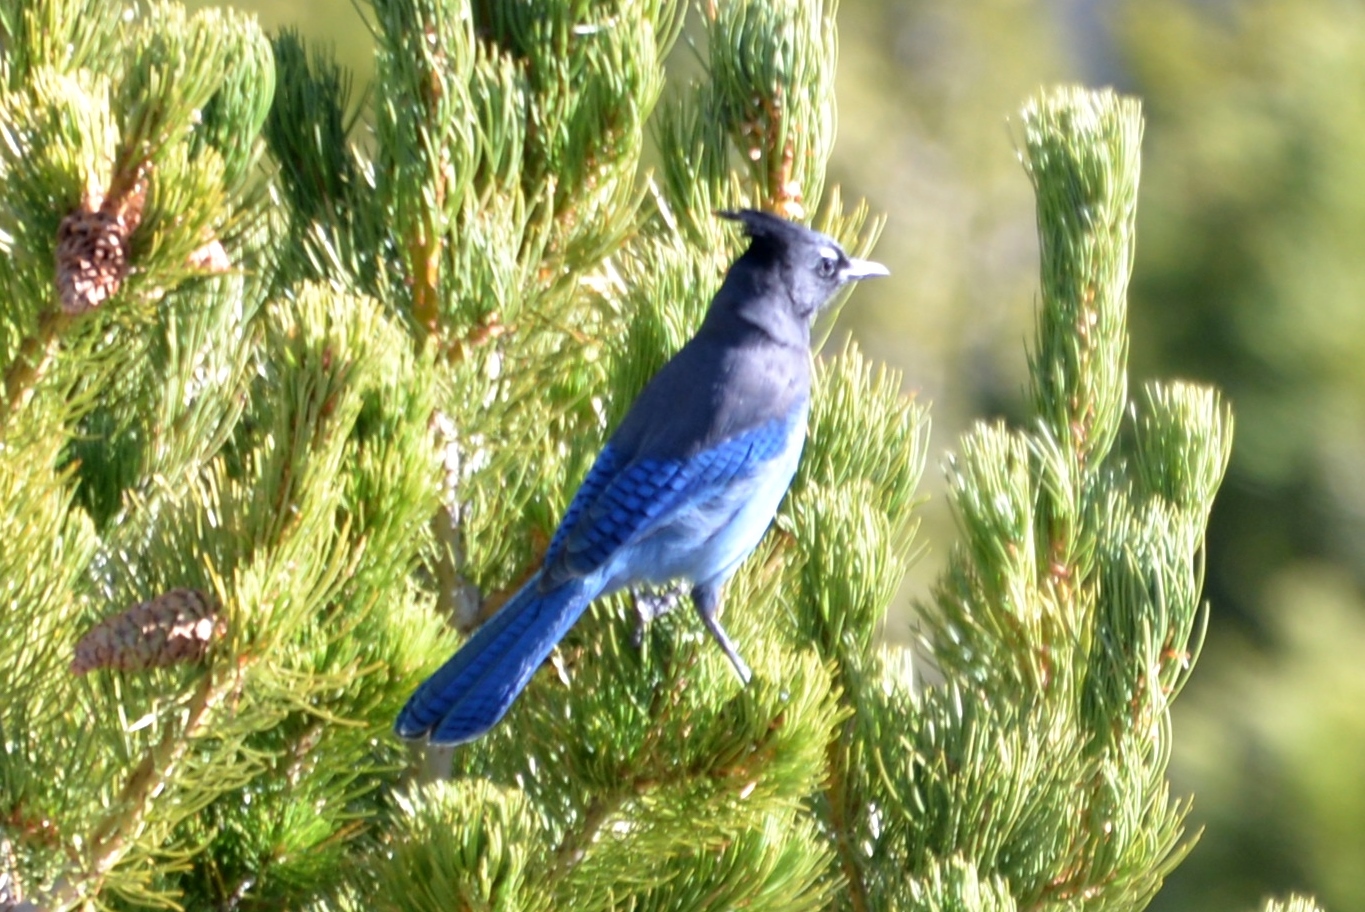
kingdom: Animalia
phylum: Chordata
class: Aves
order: Passeriformes
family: Corvidae
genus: Cyanocitta
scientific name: Cyanocitta stelleri
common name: Steller's jay
